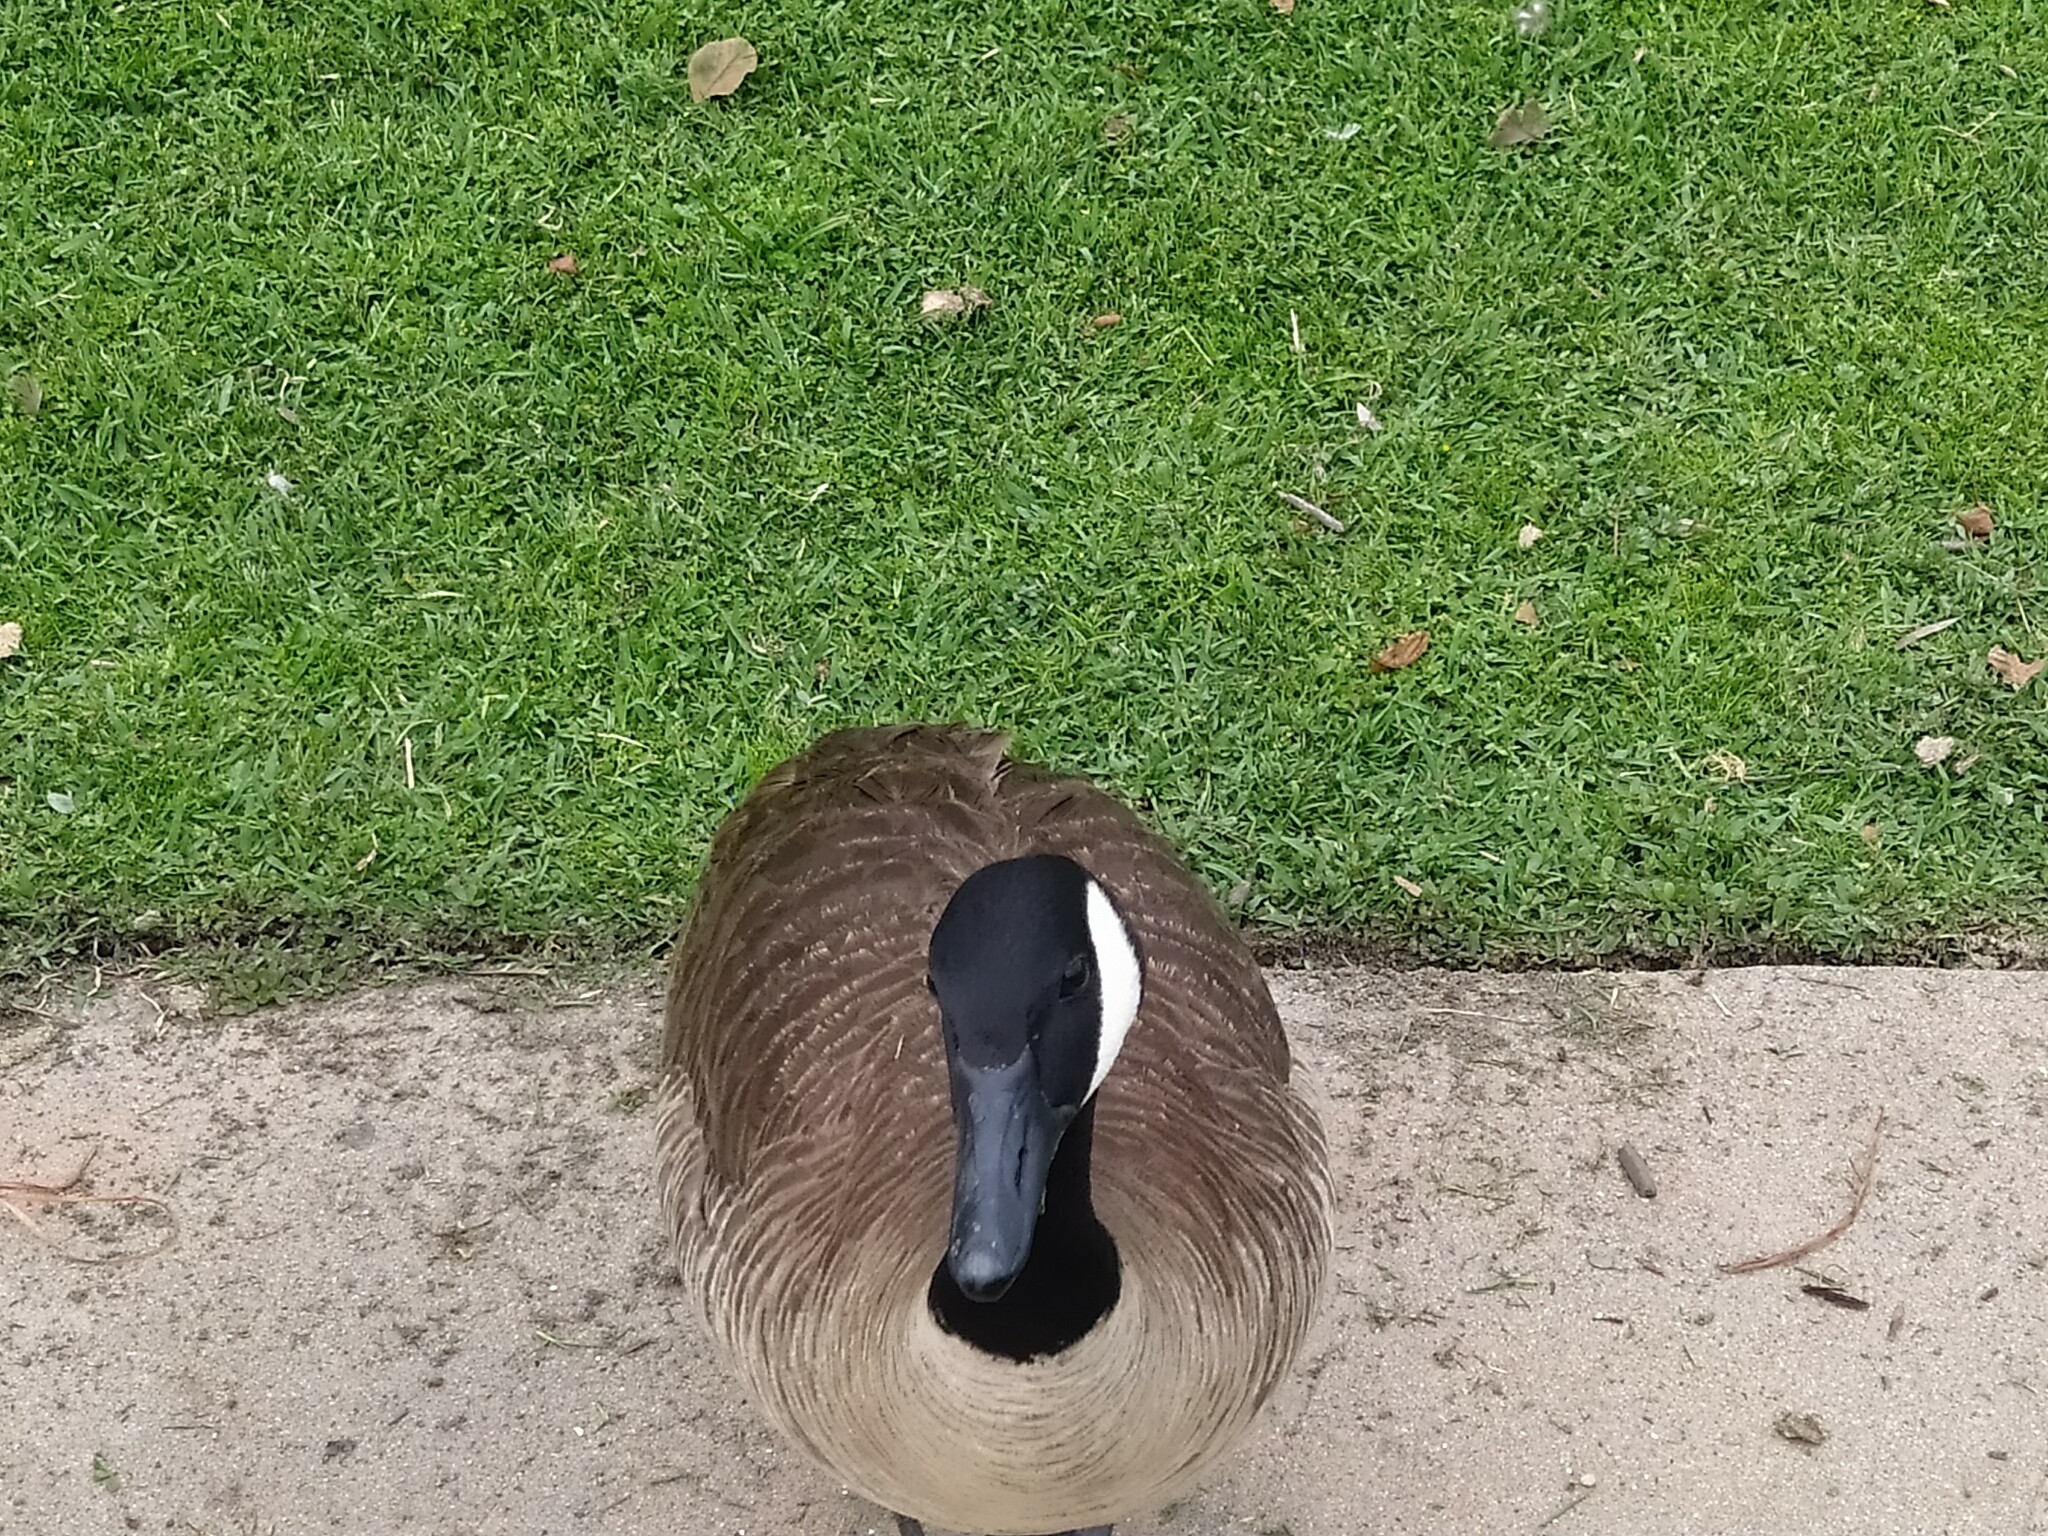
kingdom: Animalia
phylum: Chordata
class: Aves
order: Anseriformes
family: Anatidae
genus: Branta
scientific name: Branta canadensis
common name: Canada goose
